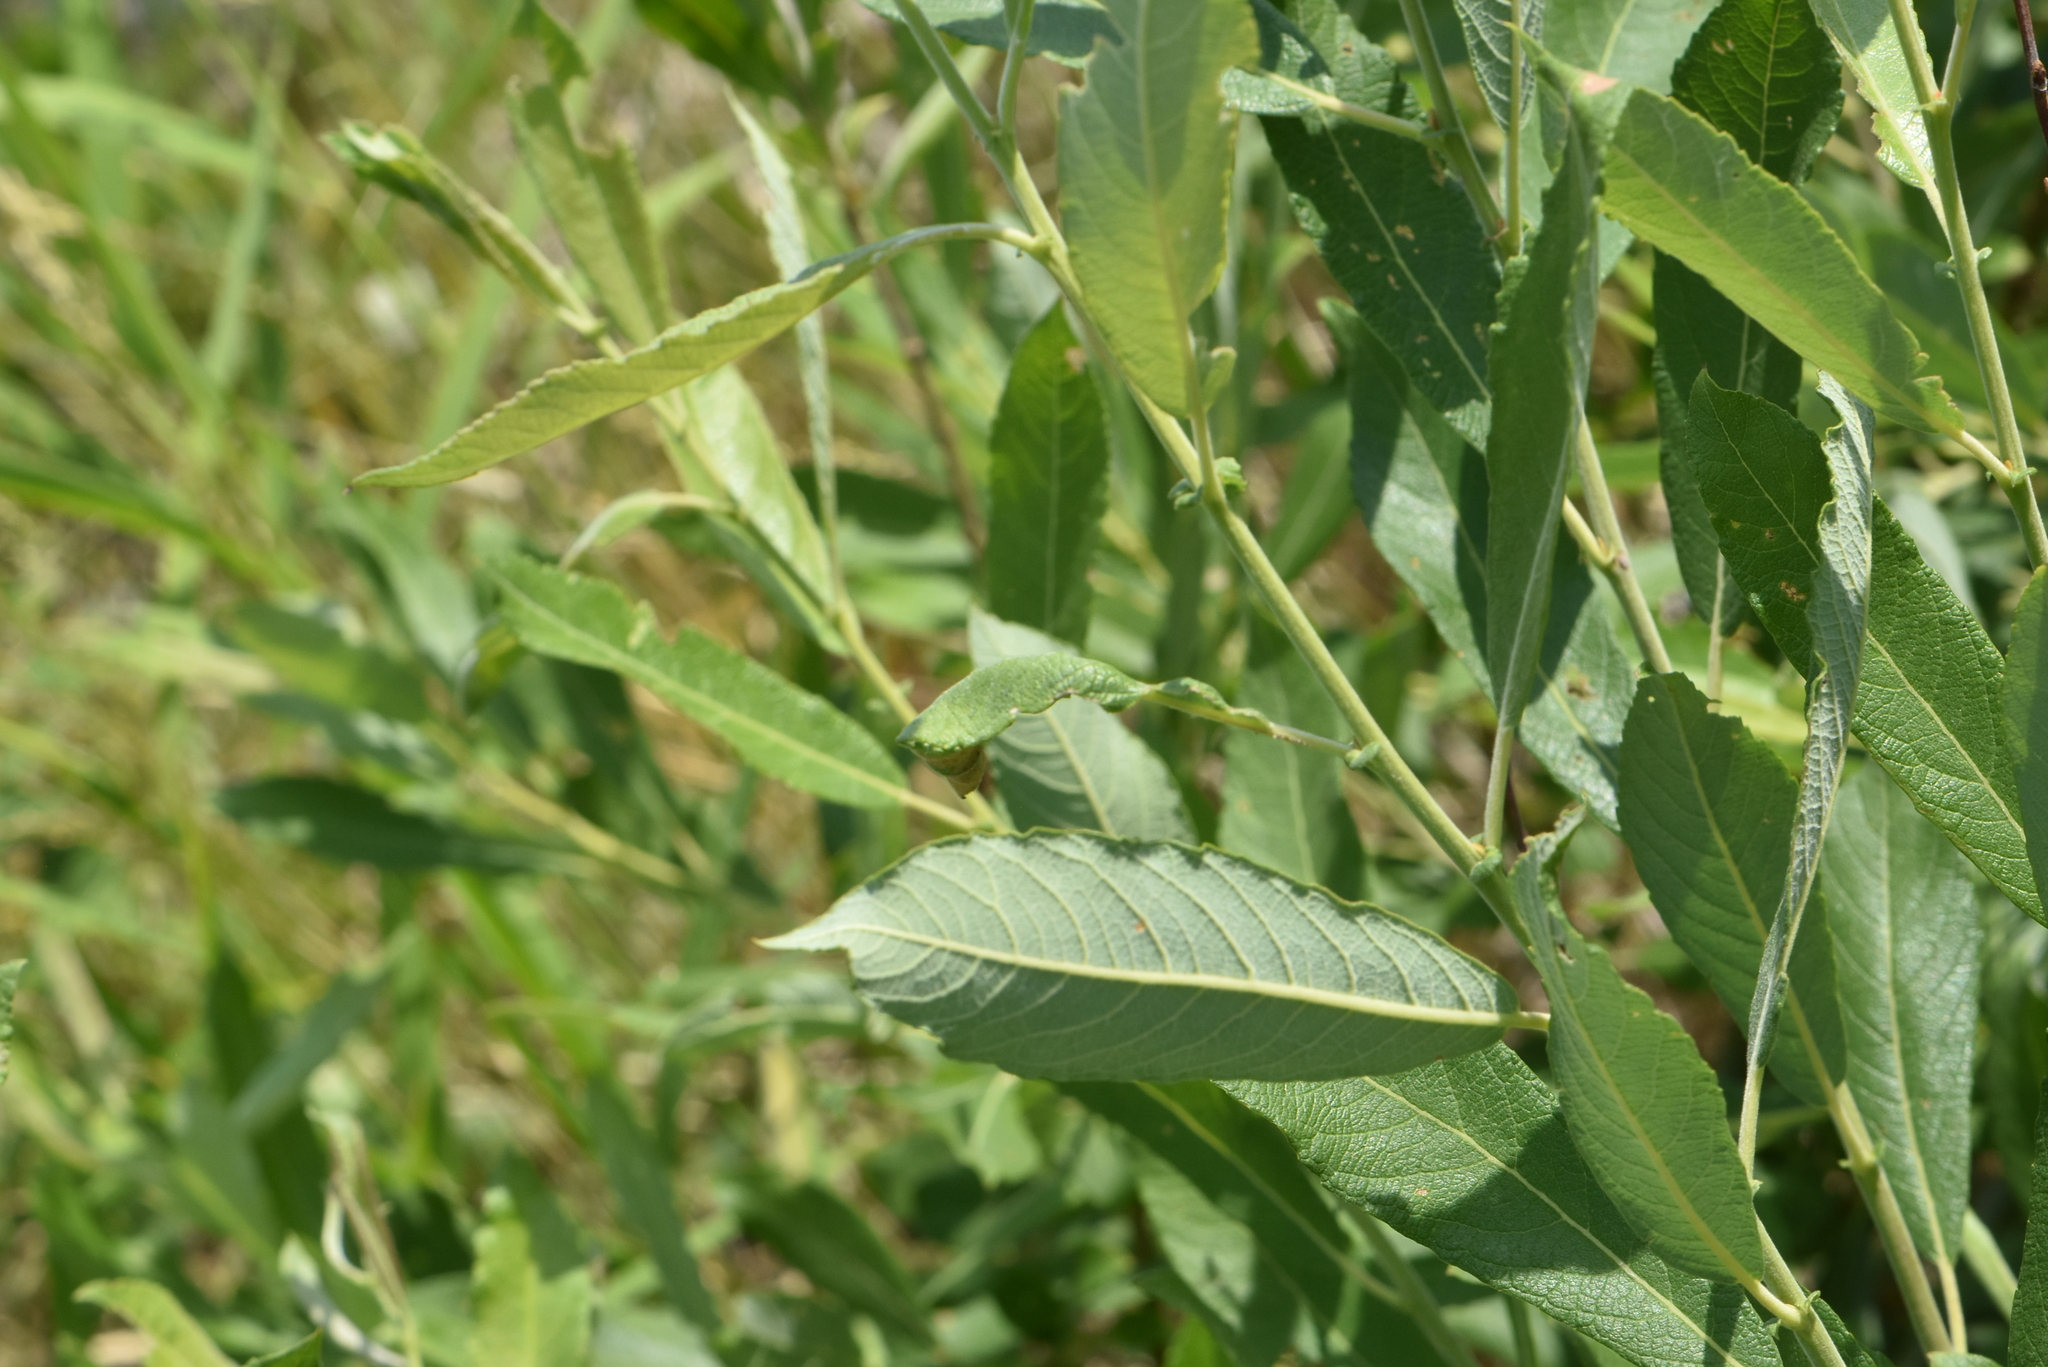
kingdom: Plantae
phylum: Tracheophyta
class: Magnoliopsida
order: Malpighiales
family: Salicaceae
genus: Salix
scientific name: Salix cinerea
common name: Common sallow
